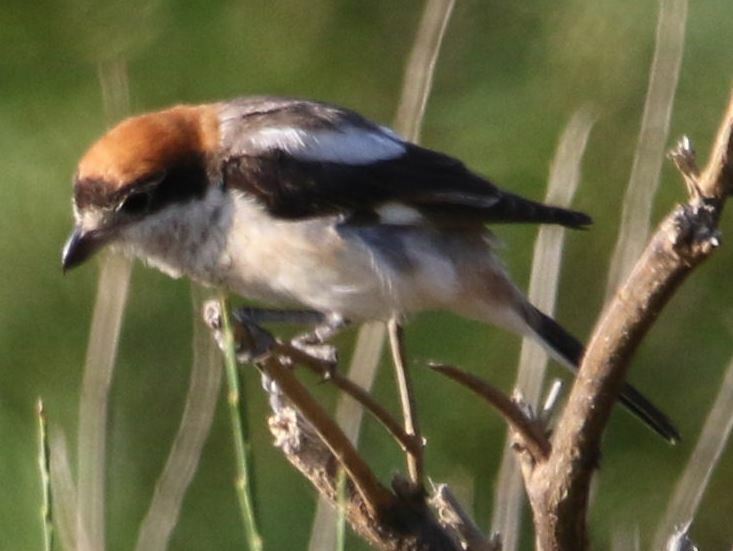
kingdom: Animalia
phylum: Chordata
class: Aves
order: Passeriformes
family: Laniidae
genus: Lanius
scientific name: Lanius senator
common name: Woodchat shrike
